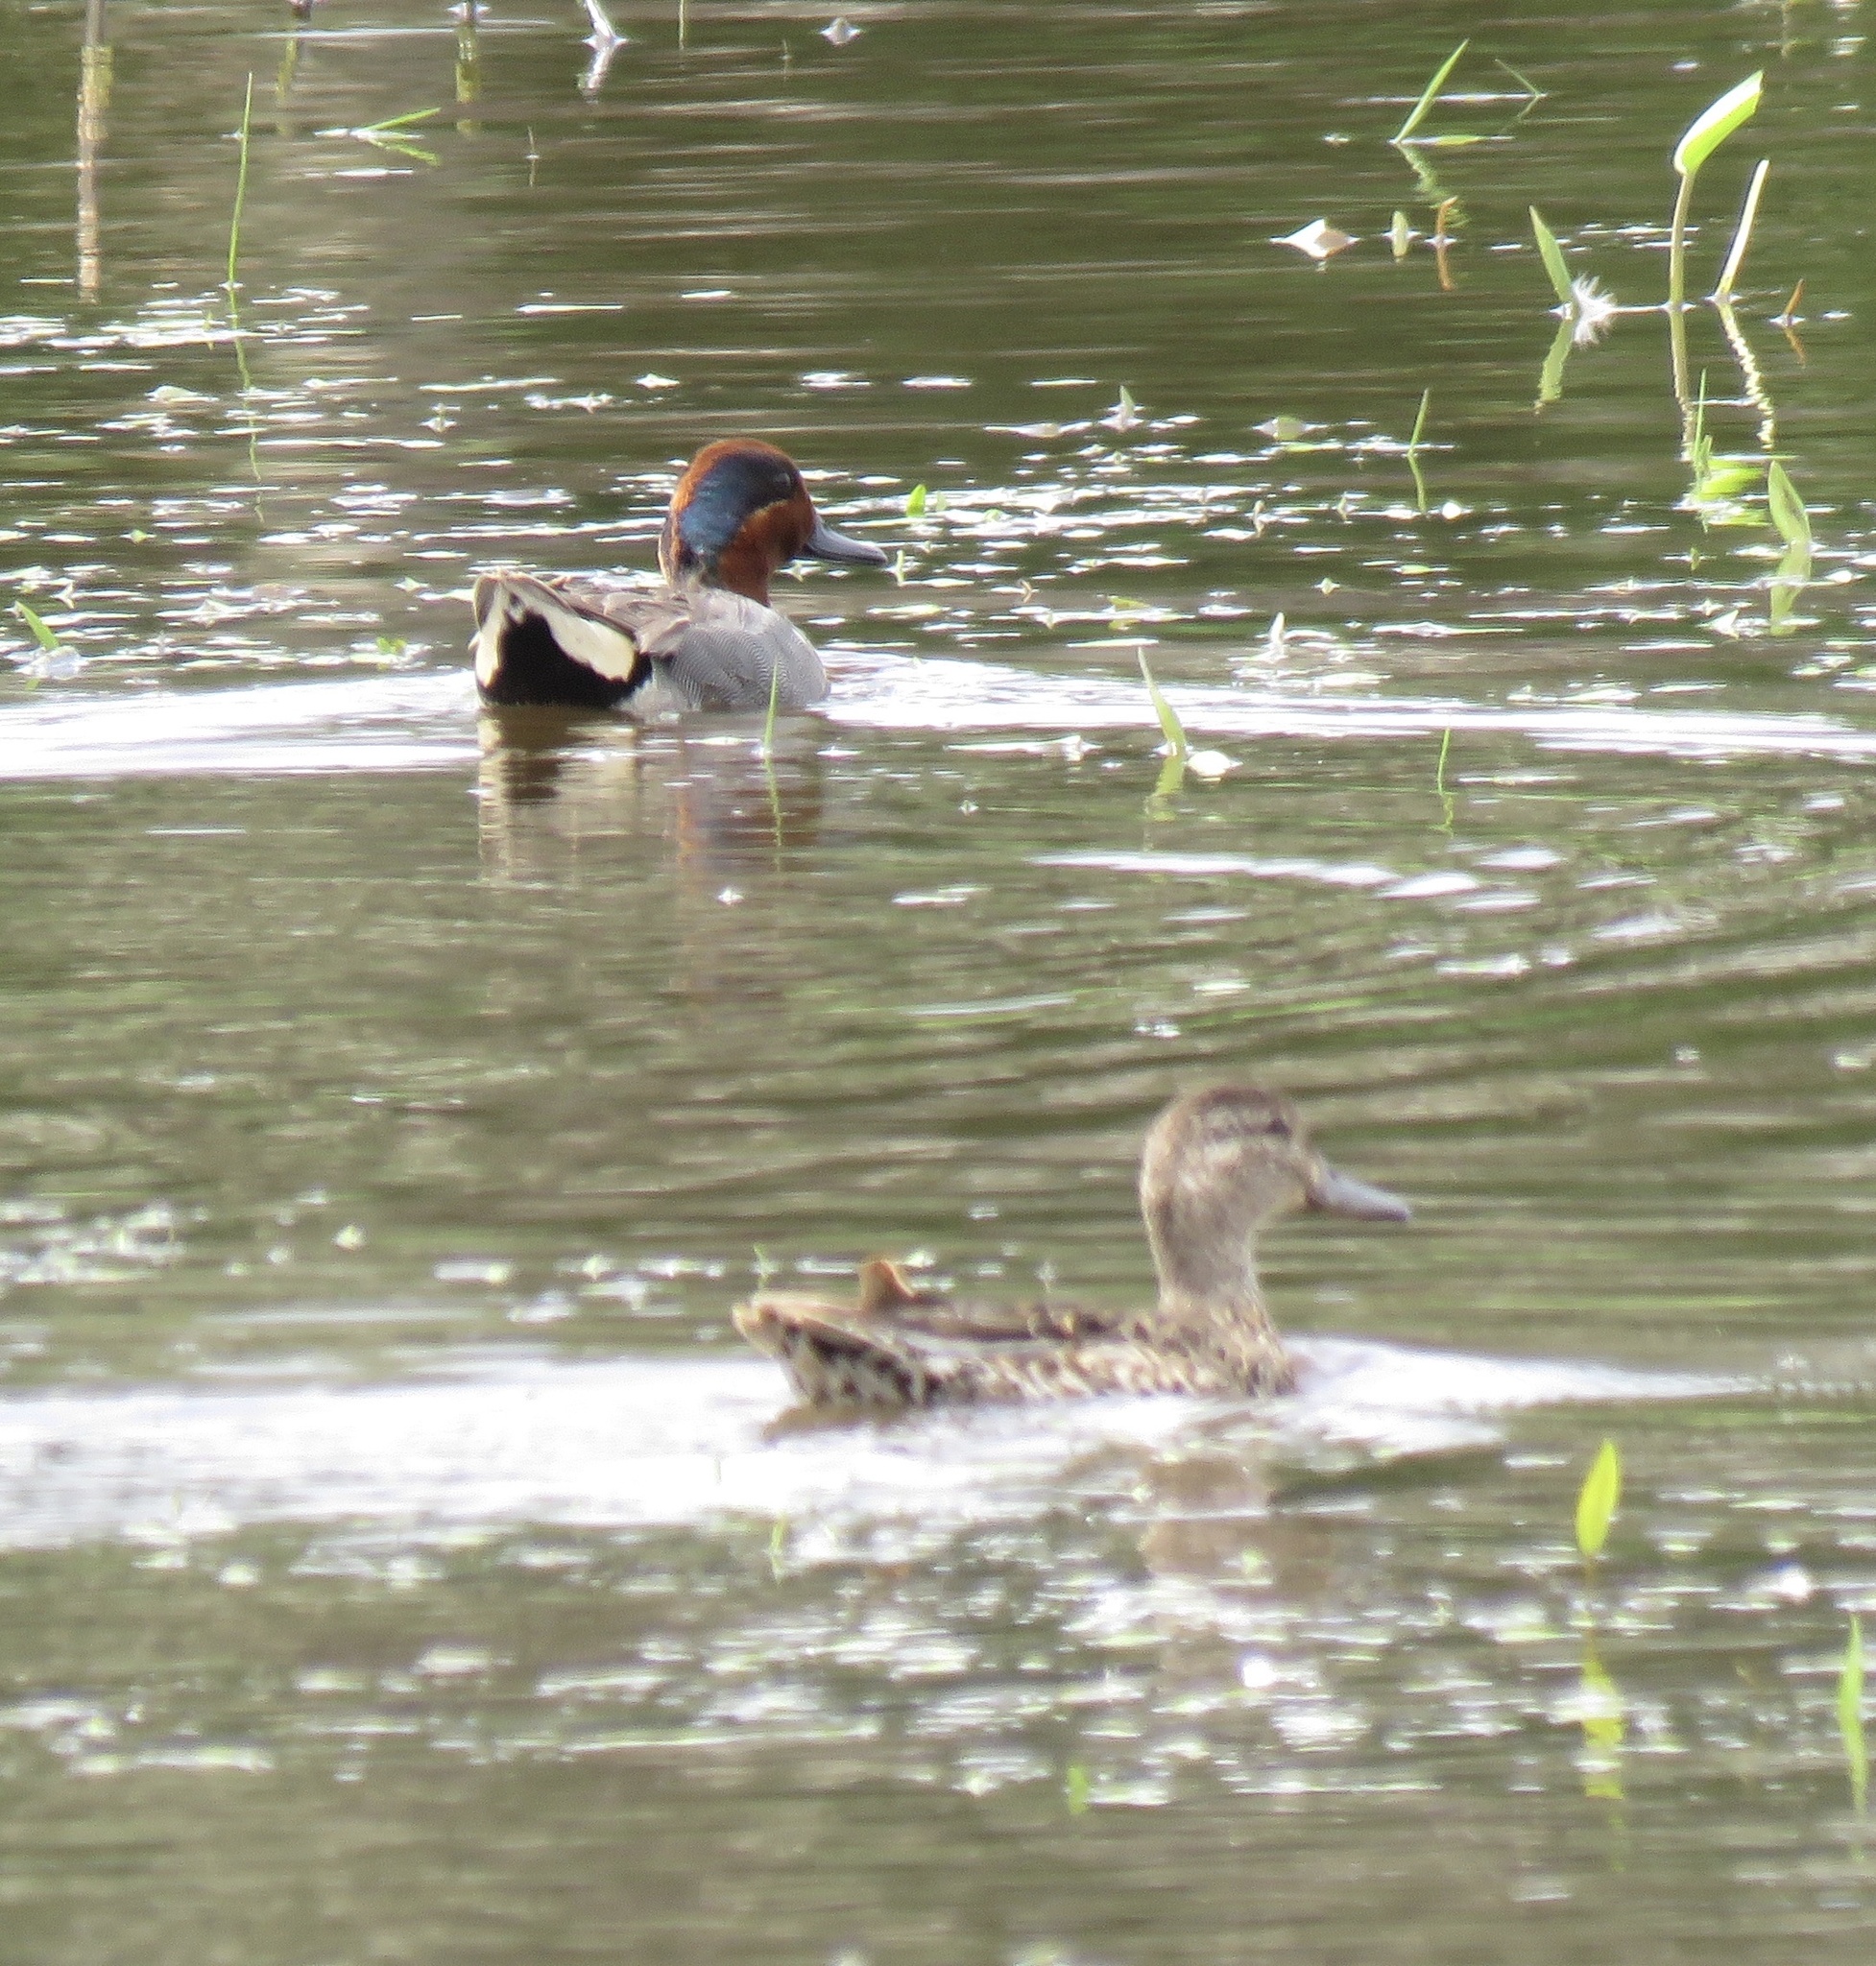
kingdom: Animalia
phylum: Chordata
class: Aves
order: Anseriformes
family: Anatidae
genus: Anas
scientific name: Anas crecca
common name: Eurasian teal
